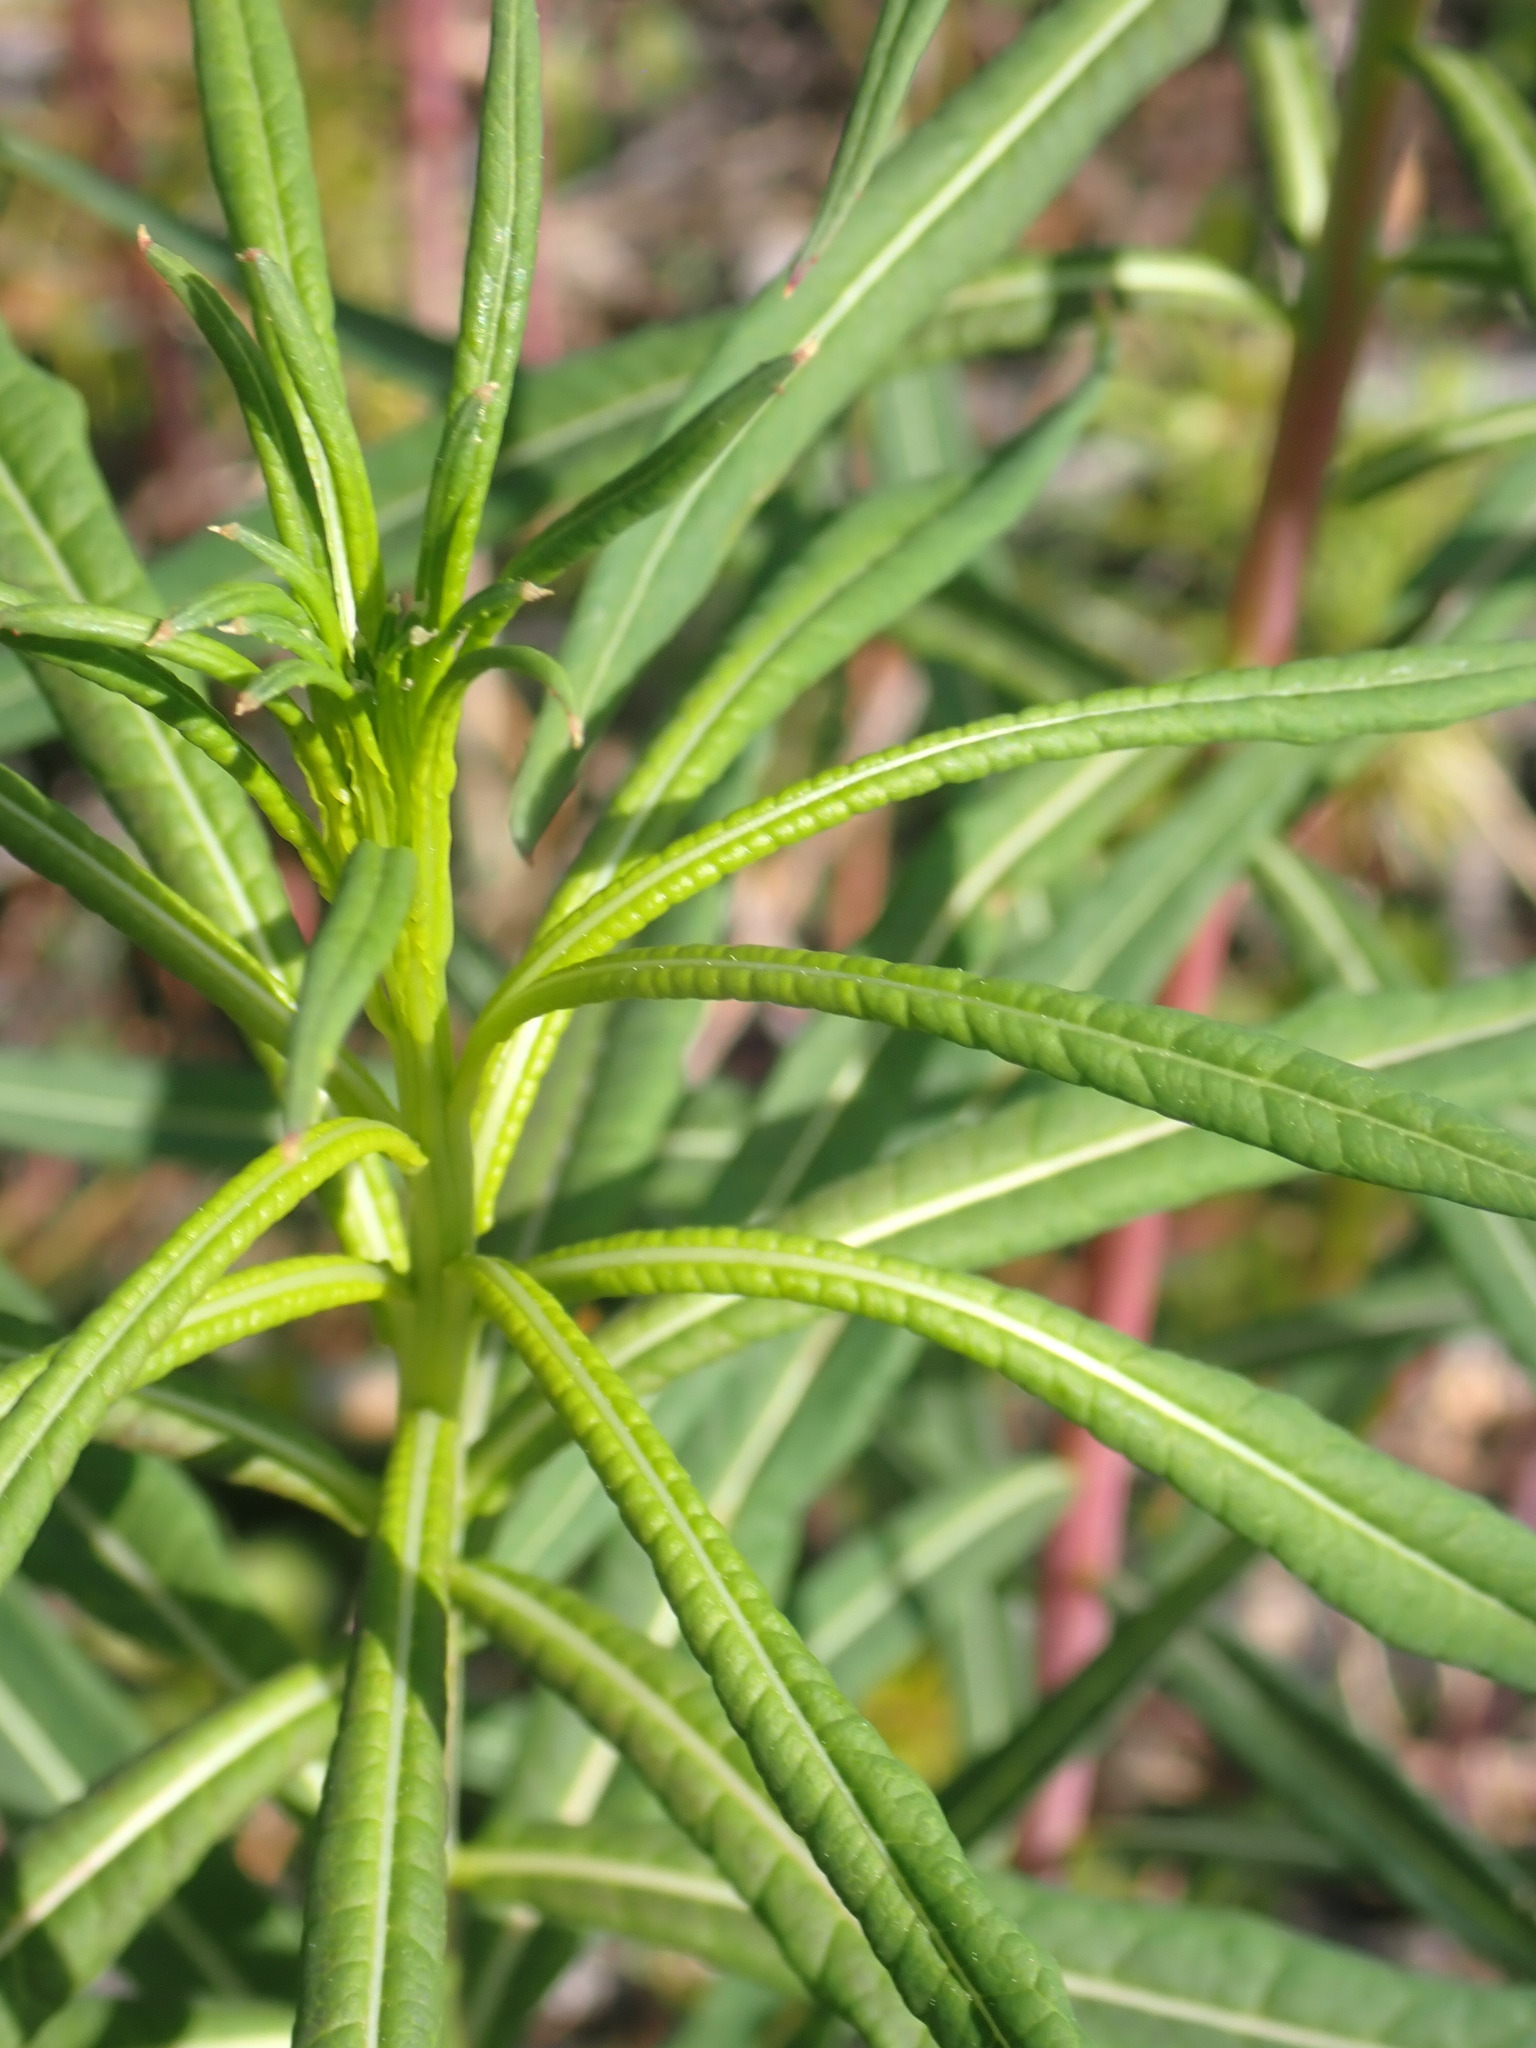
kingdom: Plantae
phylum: Tracheophyta
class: Magnoliopsida
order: Myrtales
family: Onagraceae
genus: Chamaenerion
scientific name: Chamaenerion angustifolium
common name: Fireweed
